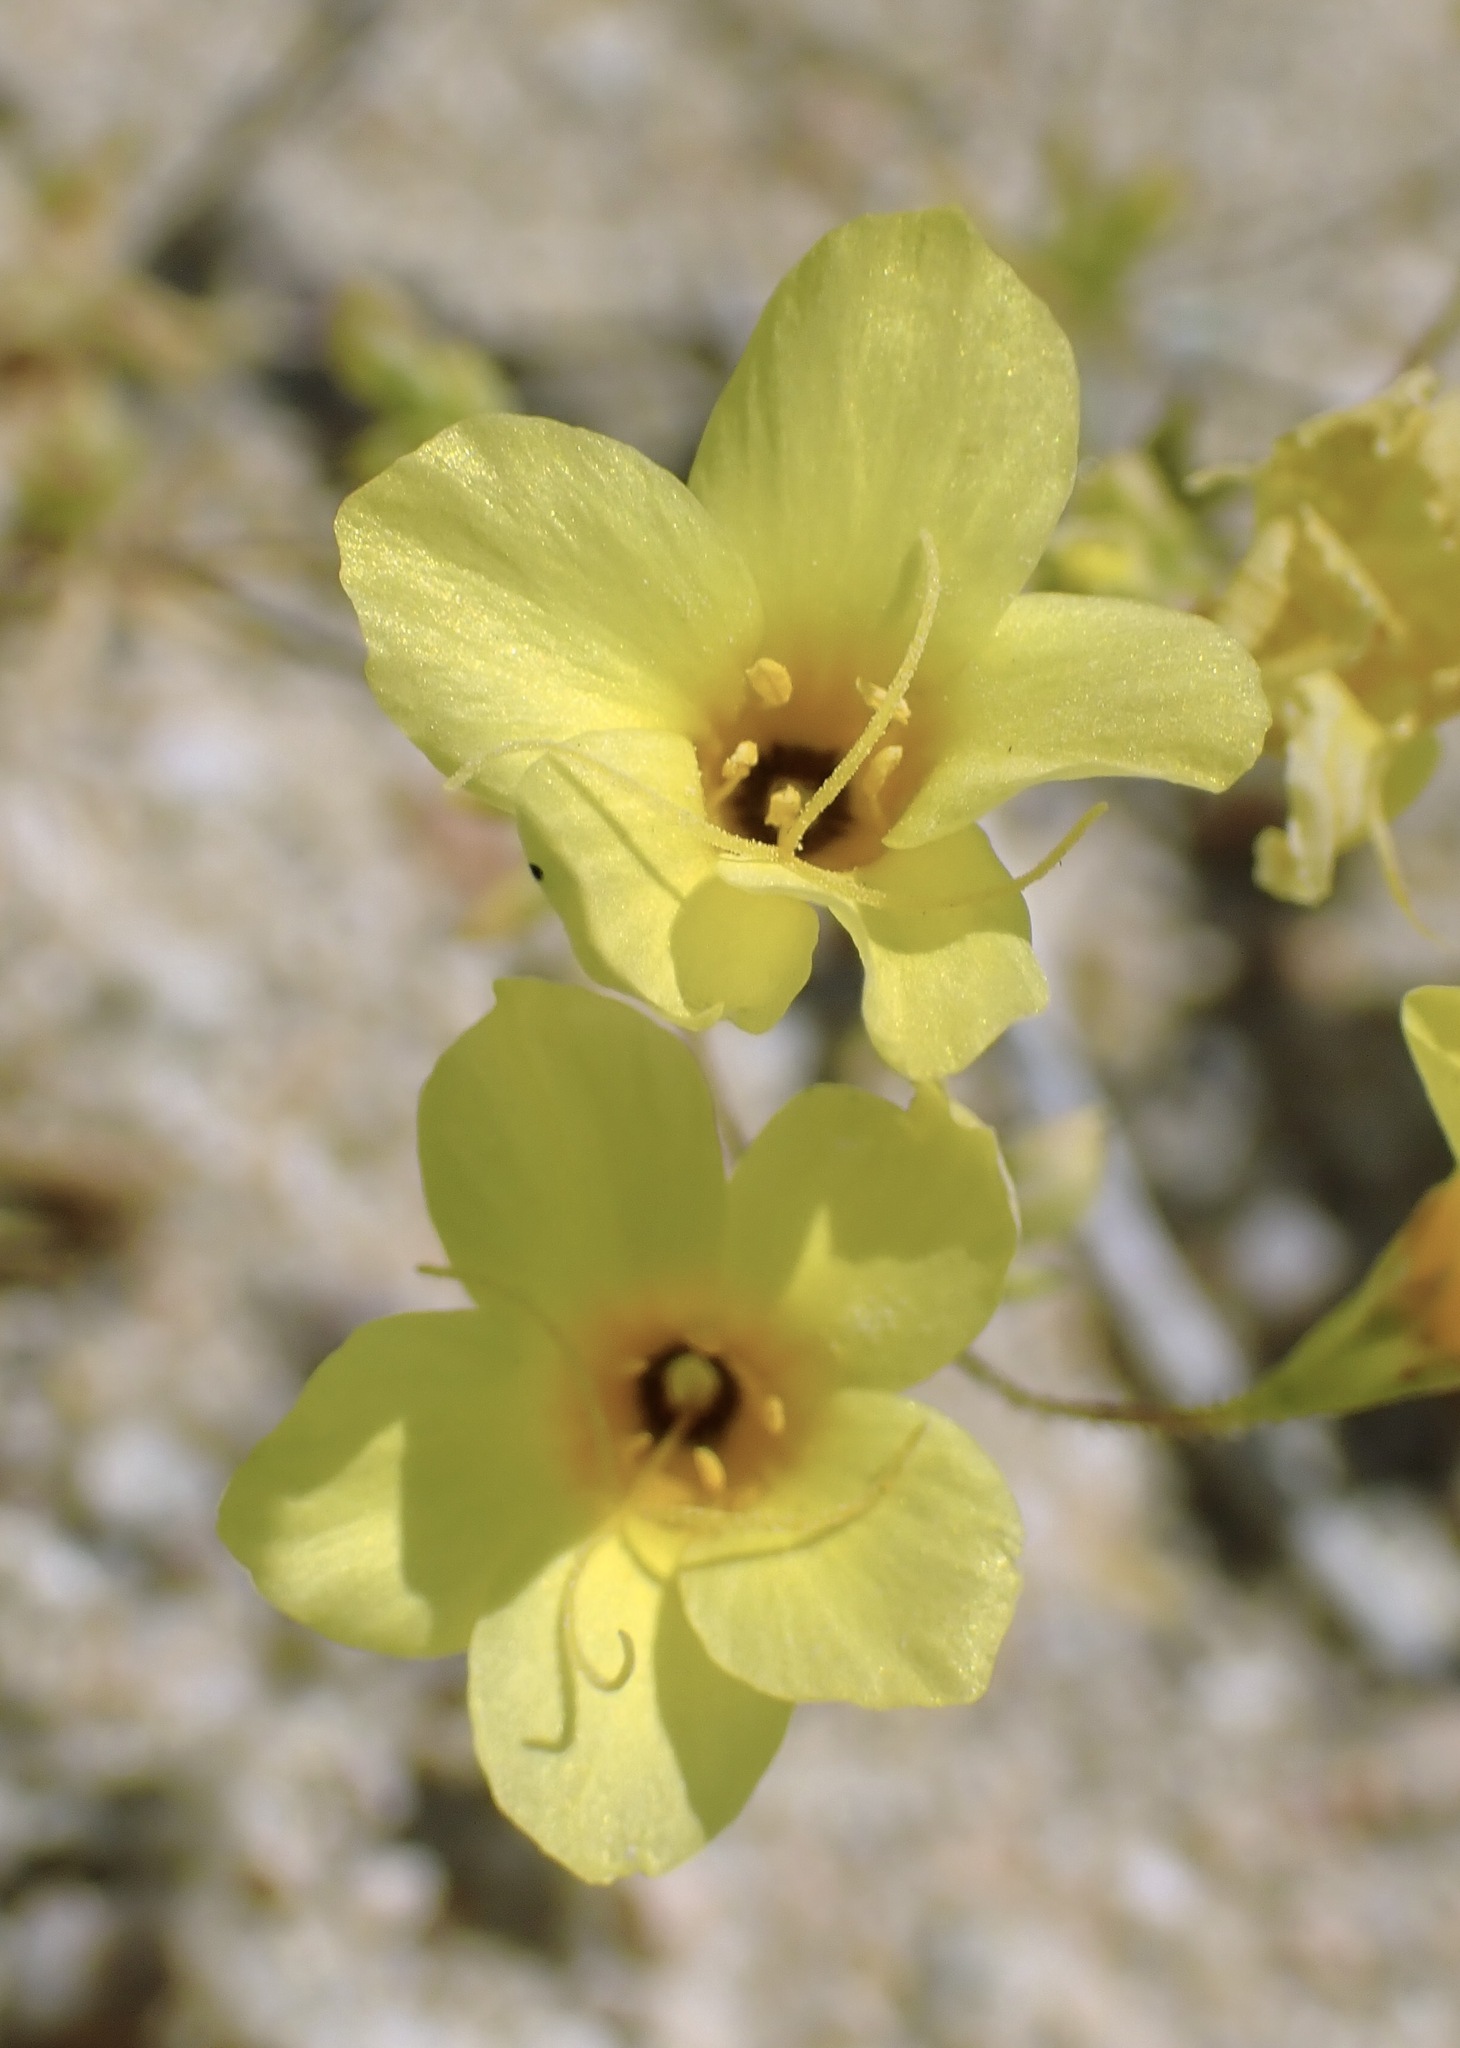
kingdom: Plantae
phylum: Tracheophyta
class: Magnoliopsida
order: Ericales
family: Polemoniaceae
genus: Leptosiphon
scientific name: Leptosiphon chrysanthus
